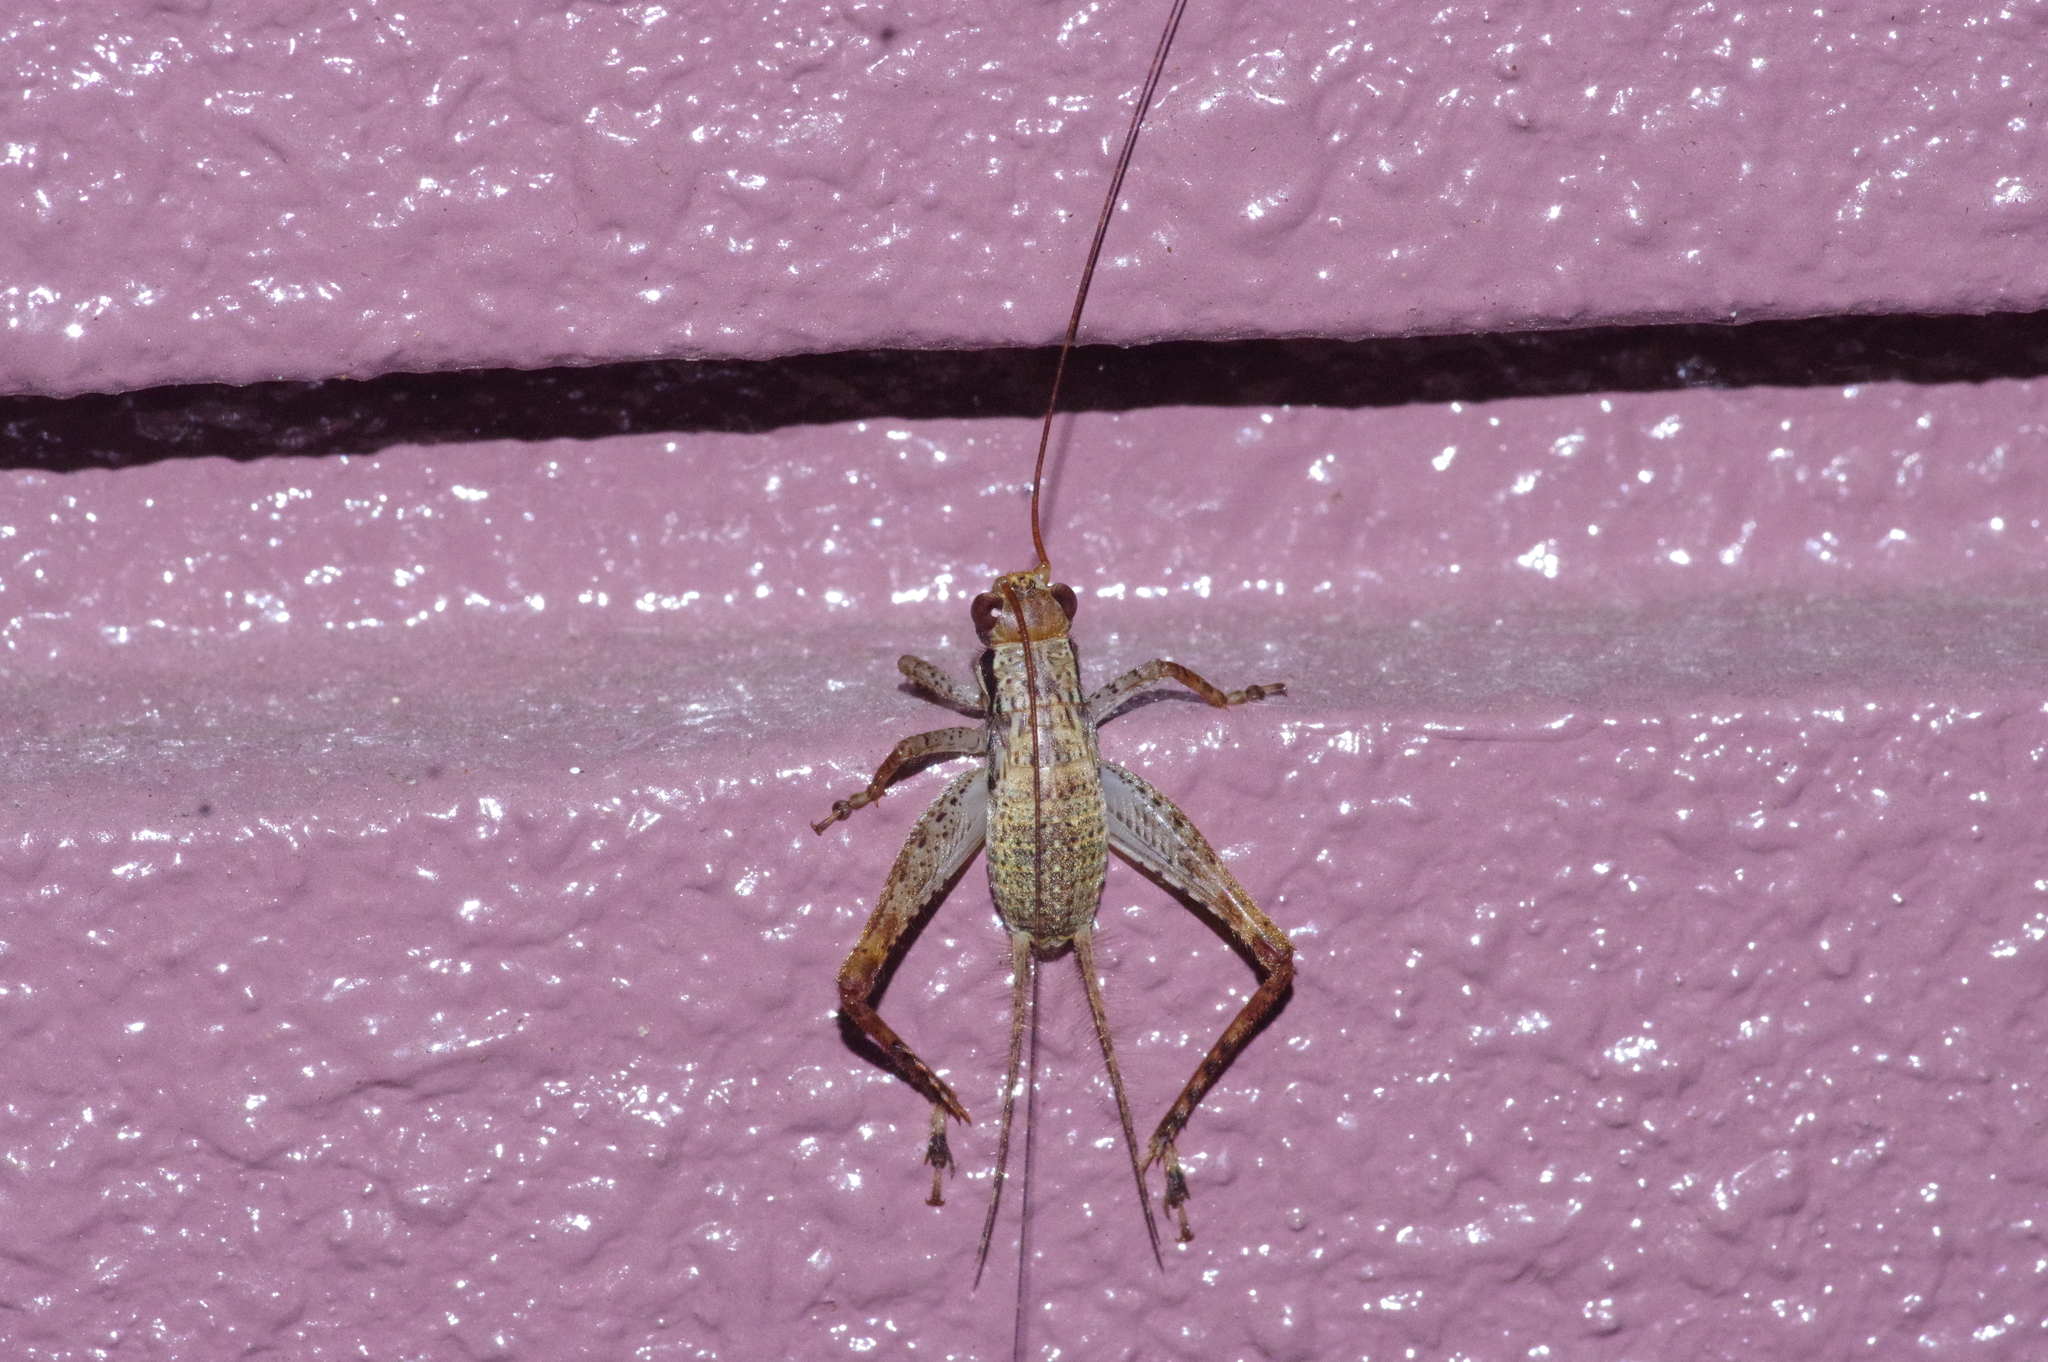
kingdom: Animalia
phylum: Arthropoda
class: Insecta
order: Orthoptera
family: Gryllidae
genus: Cardiodactylus
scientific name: Cardiodactylus guttulus
